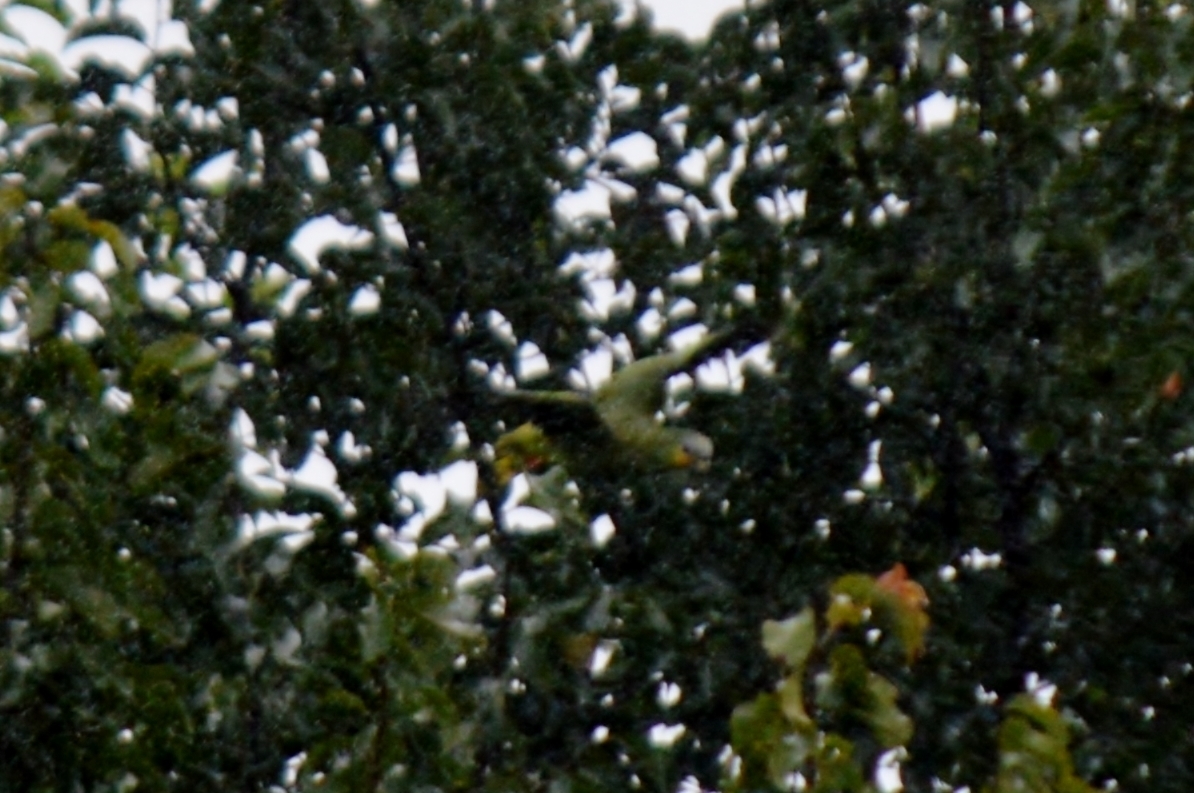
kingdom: Animalia
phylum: Chordata
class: Aves
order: Psittaciformes
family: Psittacidae
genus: Amazona
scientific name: Amazona aestiva
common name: Turquoise-fronted amazon
